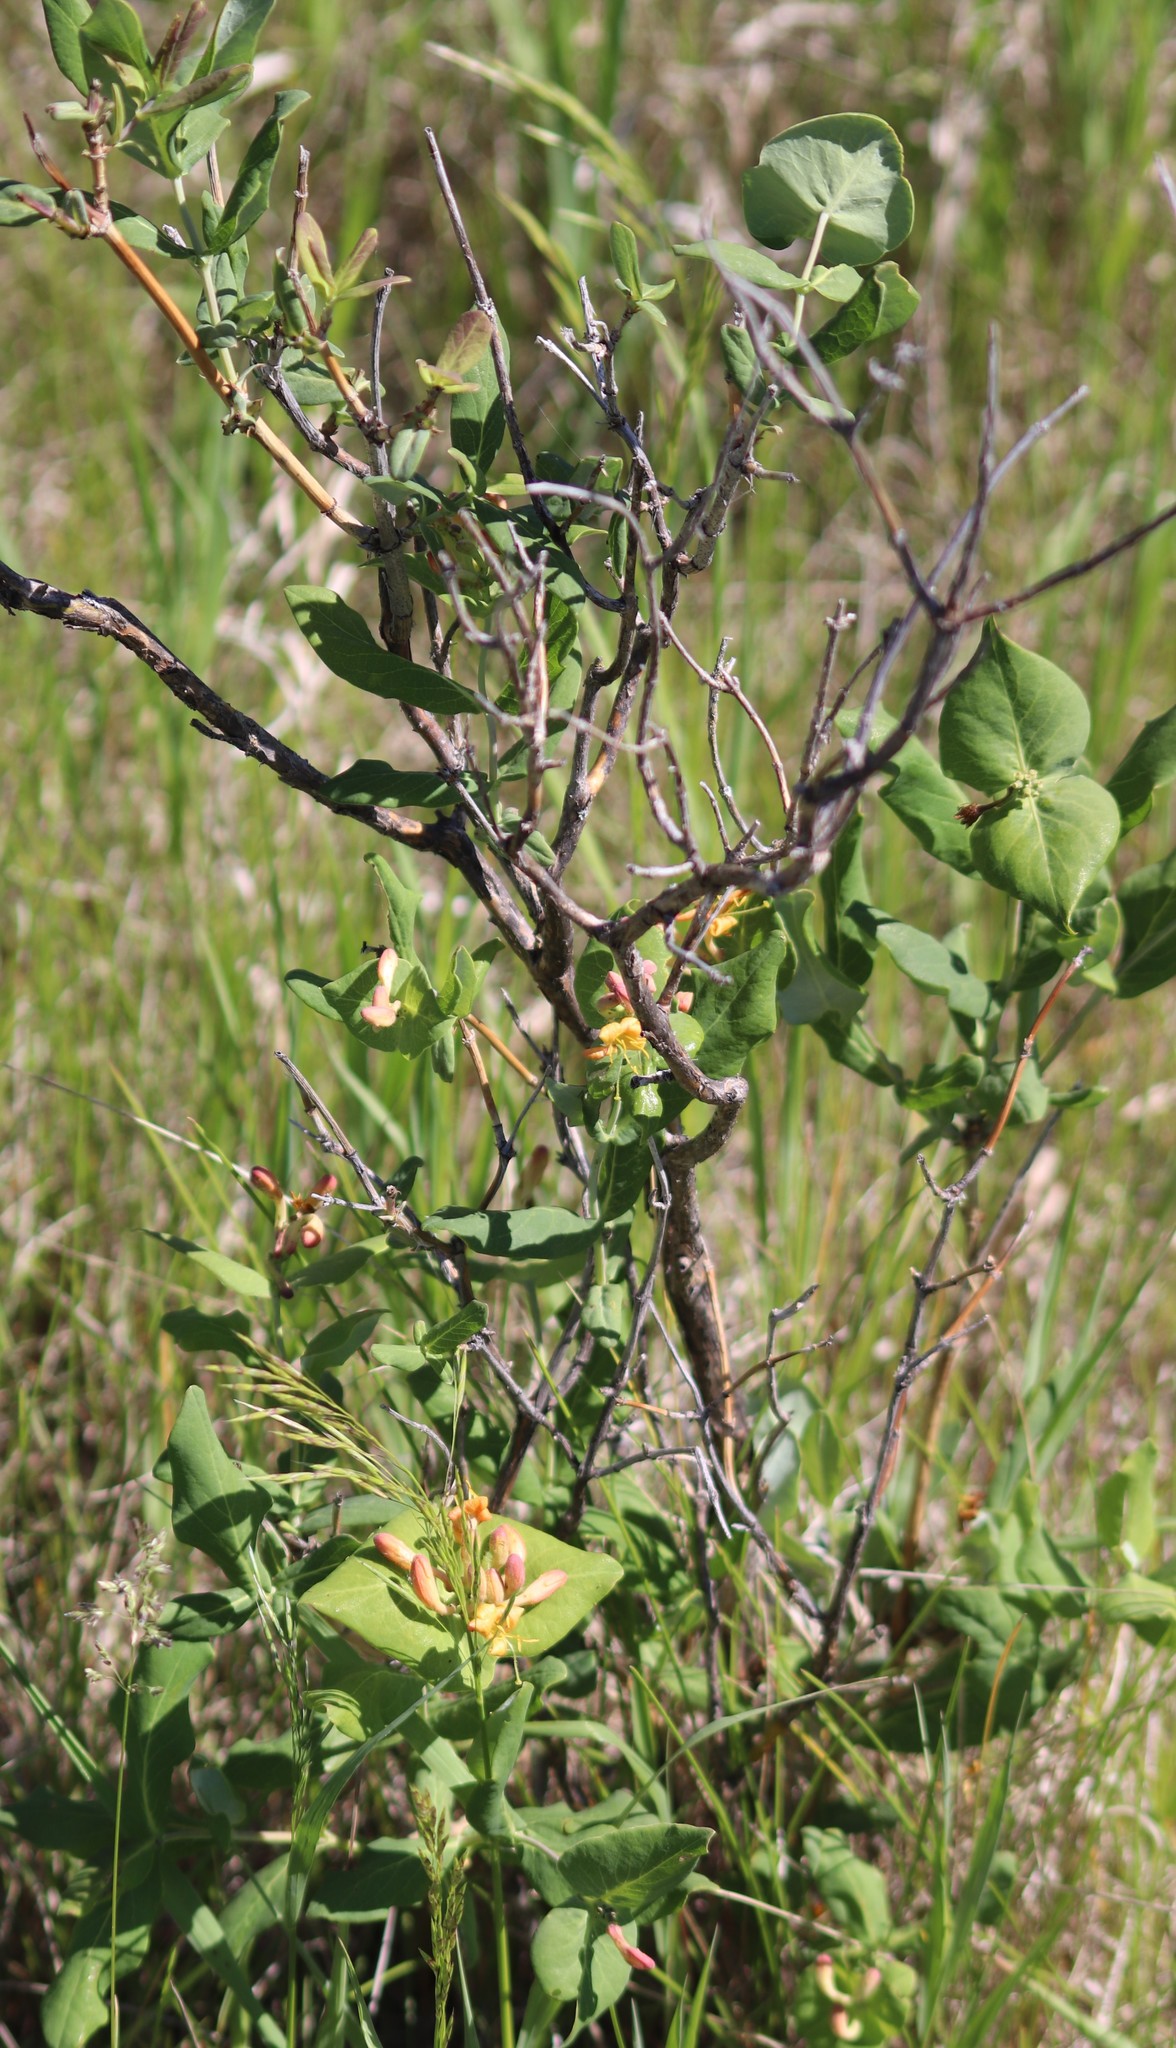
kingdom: Plantae
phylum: Tracheophyta
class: Magnoliopsida
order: Dipsacales
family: Caprifoliaceae
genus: Lonicera
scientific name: Lonicera dioica
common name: Limber honeysuckle
